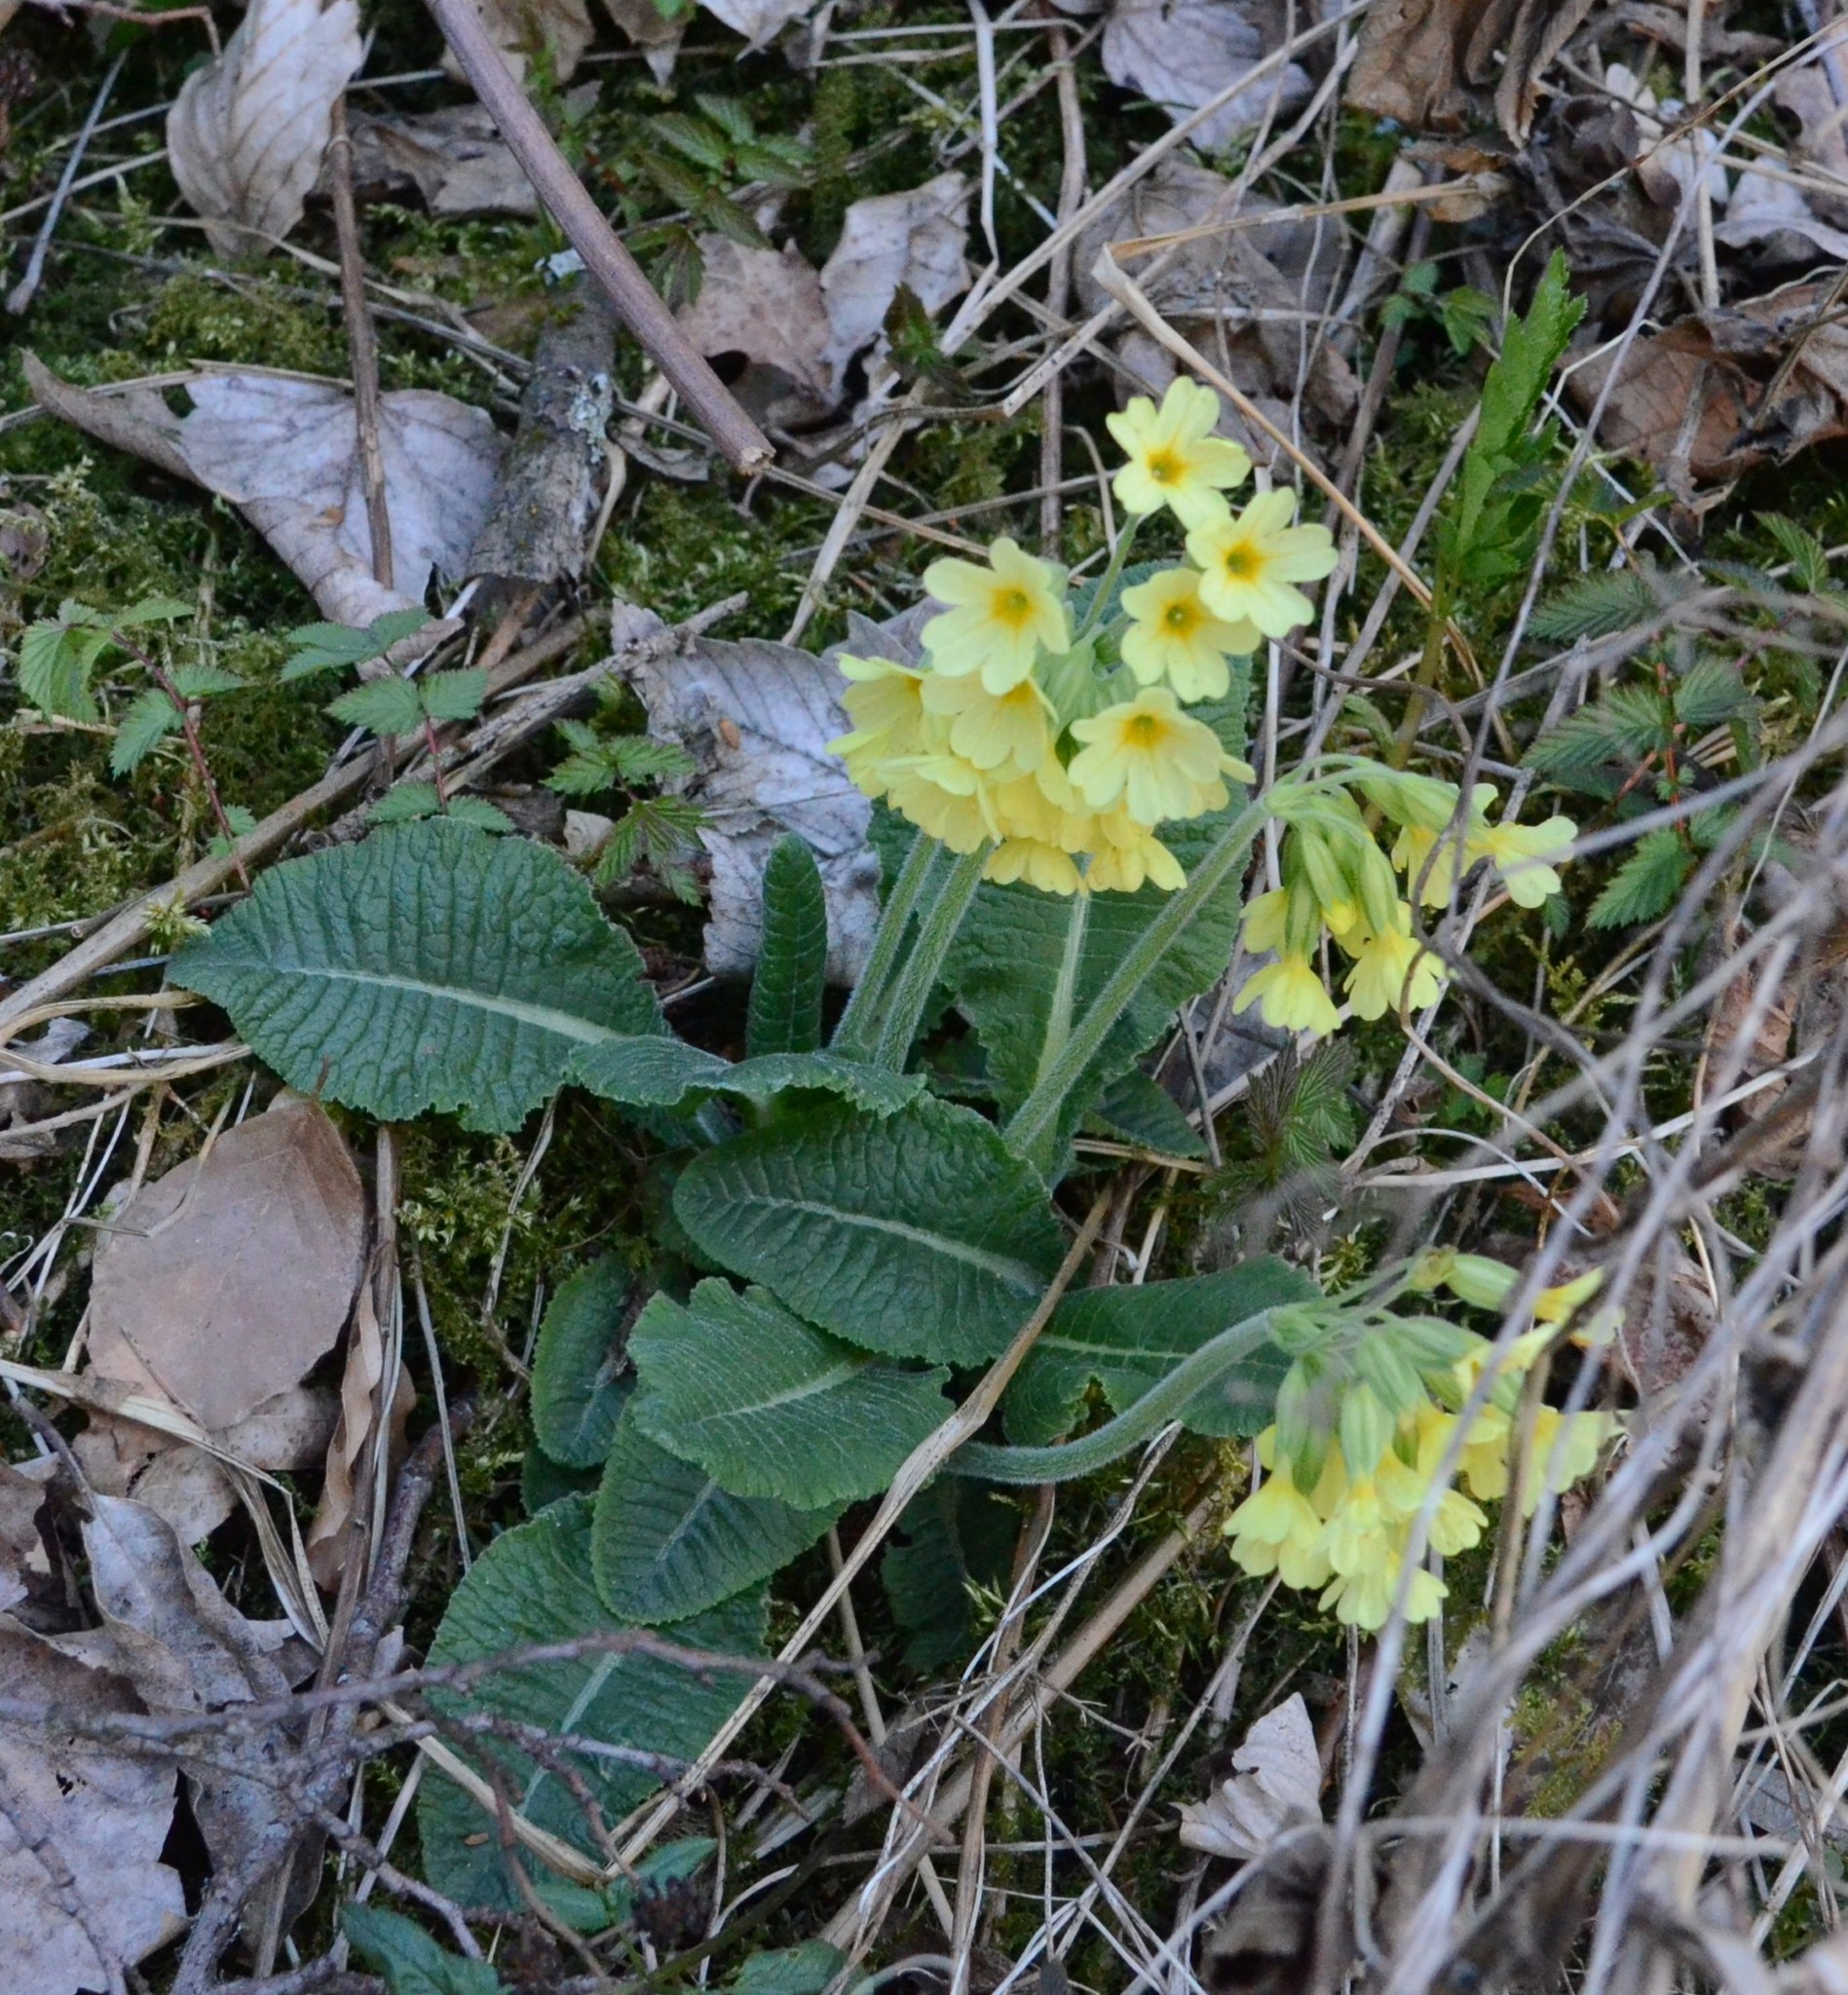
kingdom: Plantae
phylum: Tracheophyta
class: Magnoliopsida
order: Ericales
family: Primulaceae
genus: Primula
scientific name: Primula elatior
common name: Oxlip
